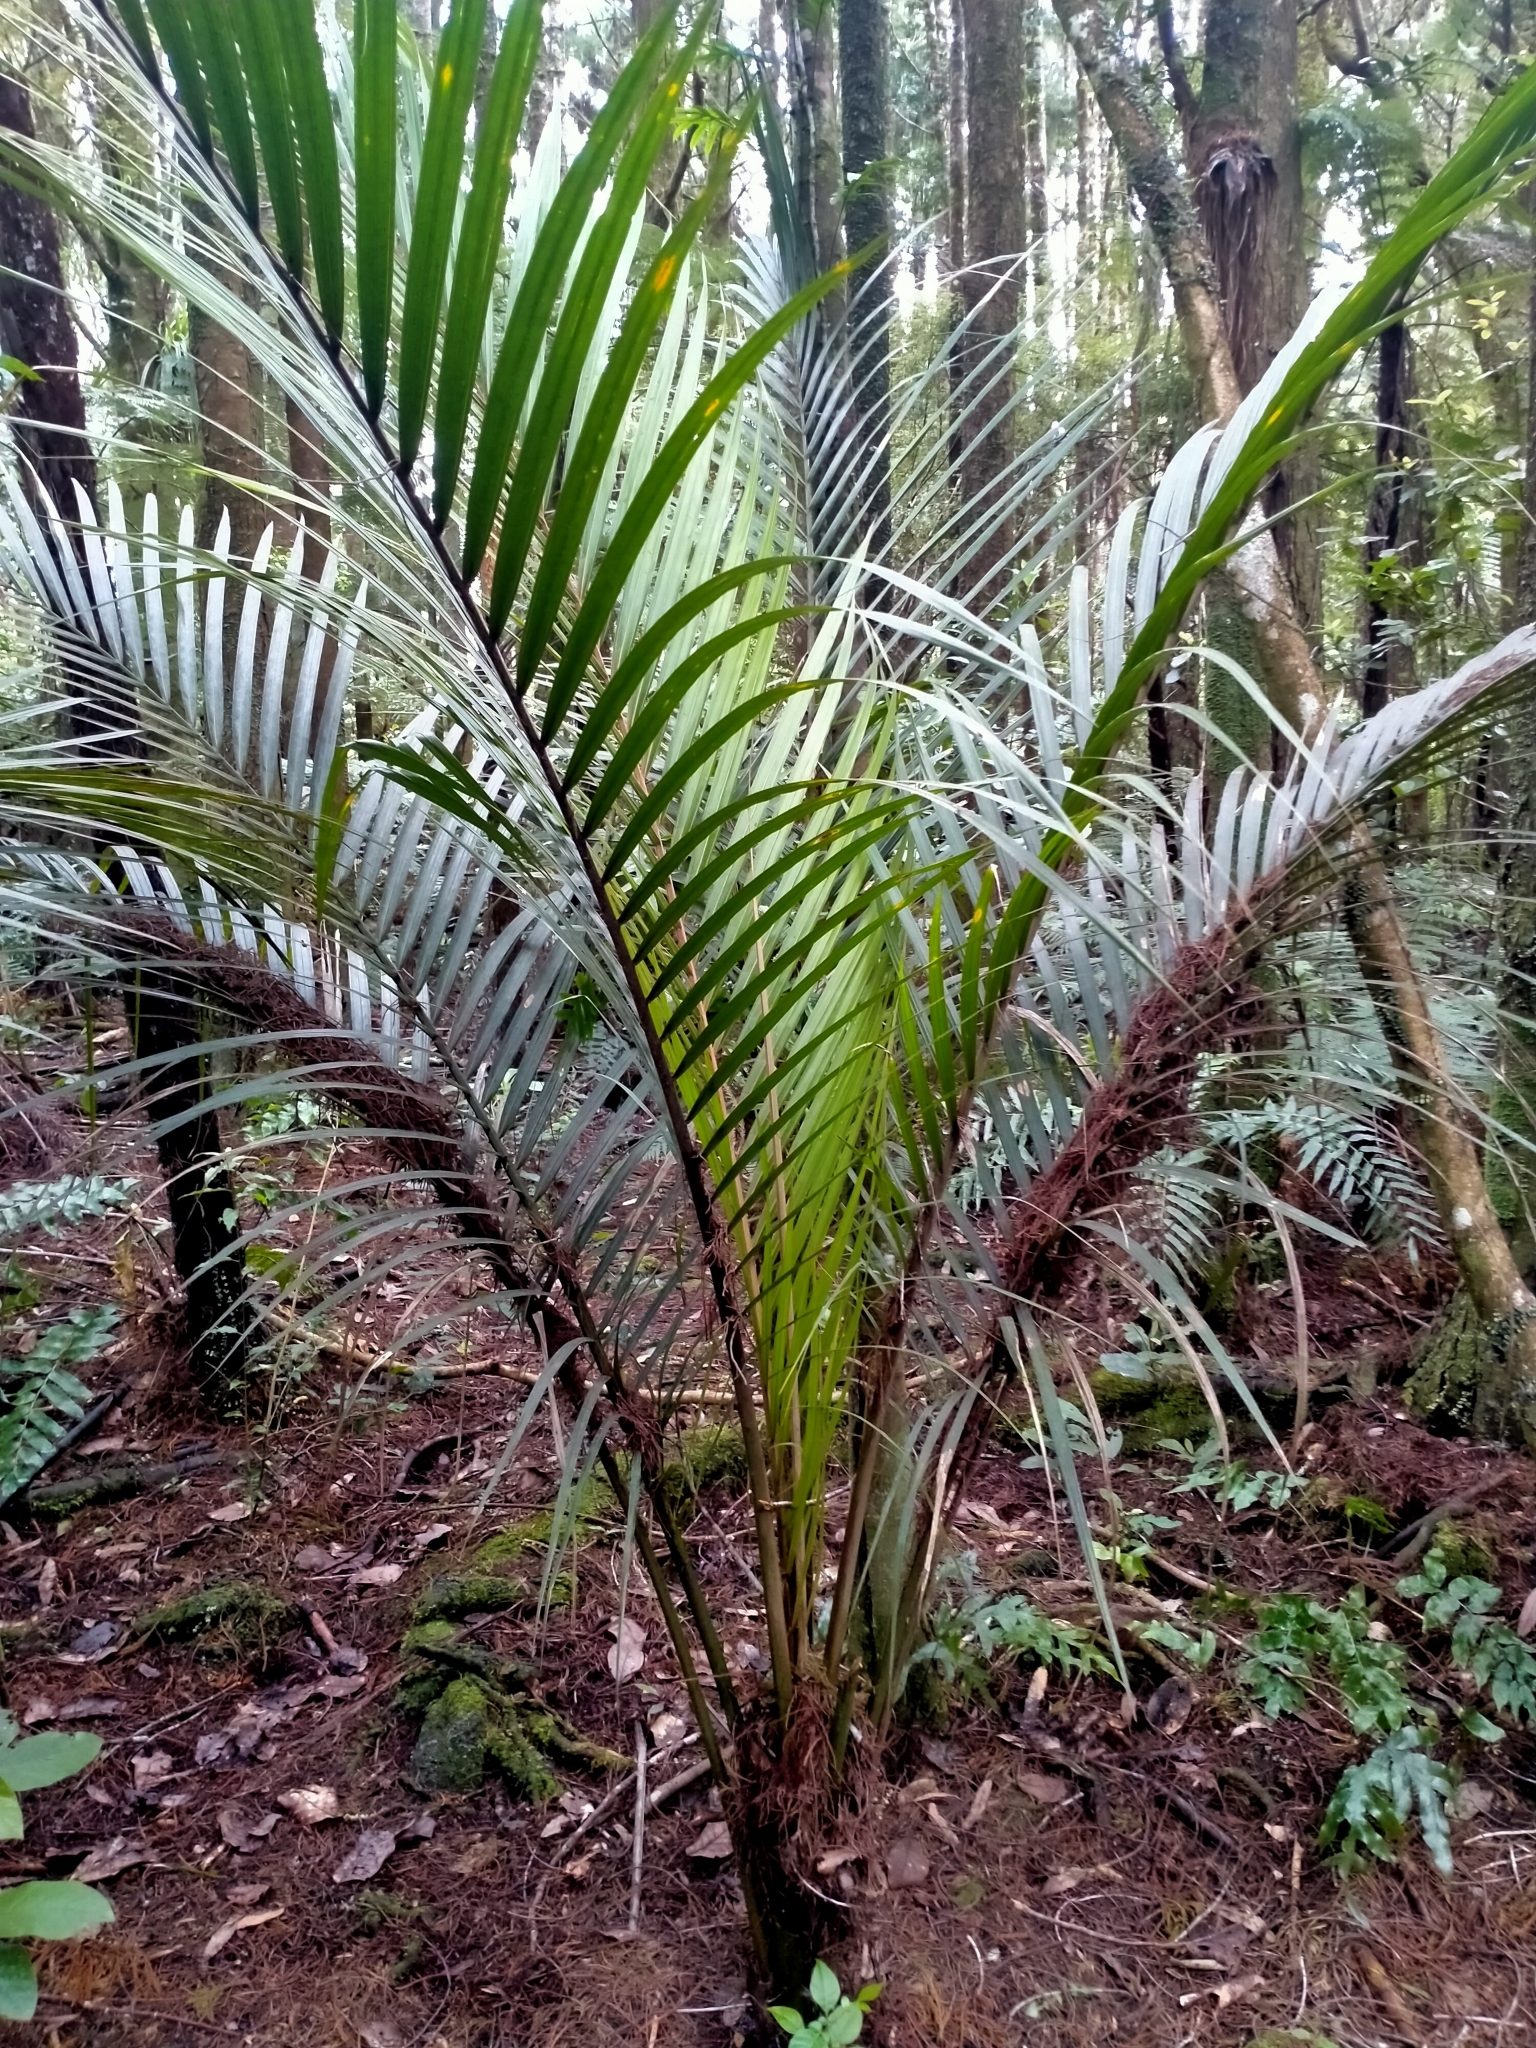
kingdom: Plantae
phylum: Tracheophyta
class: Liliopsida
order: Arecales
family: Arecaceae
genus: Rhopalostylis
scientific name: Rhopalostylis sapida
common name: Feather-duster palm
